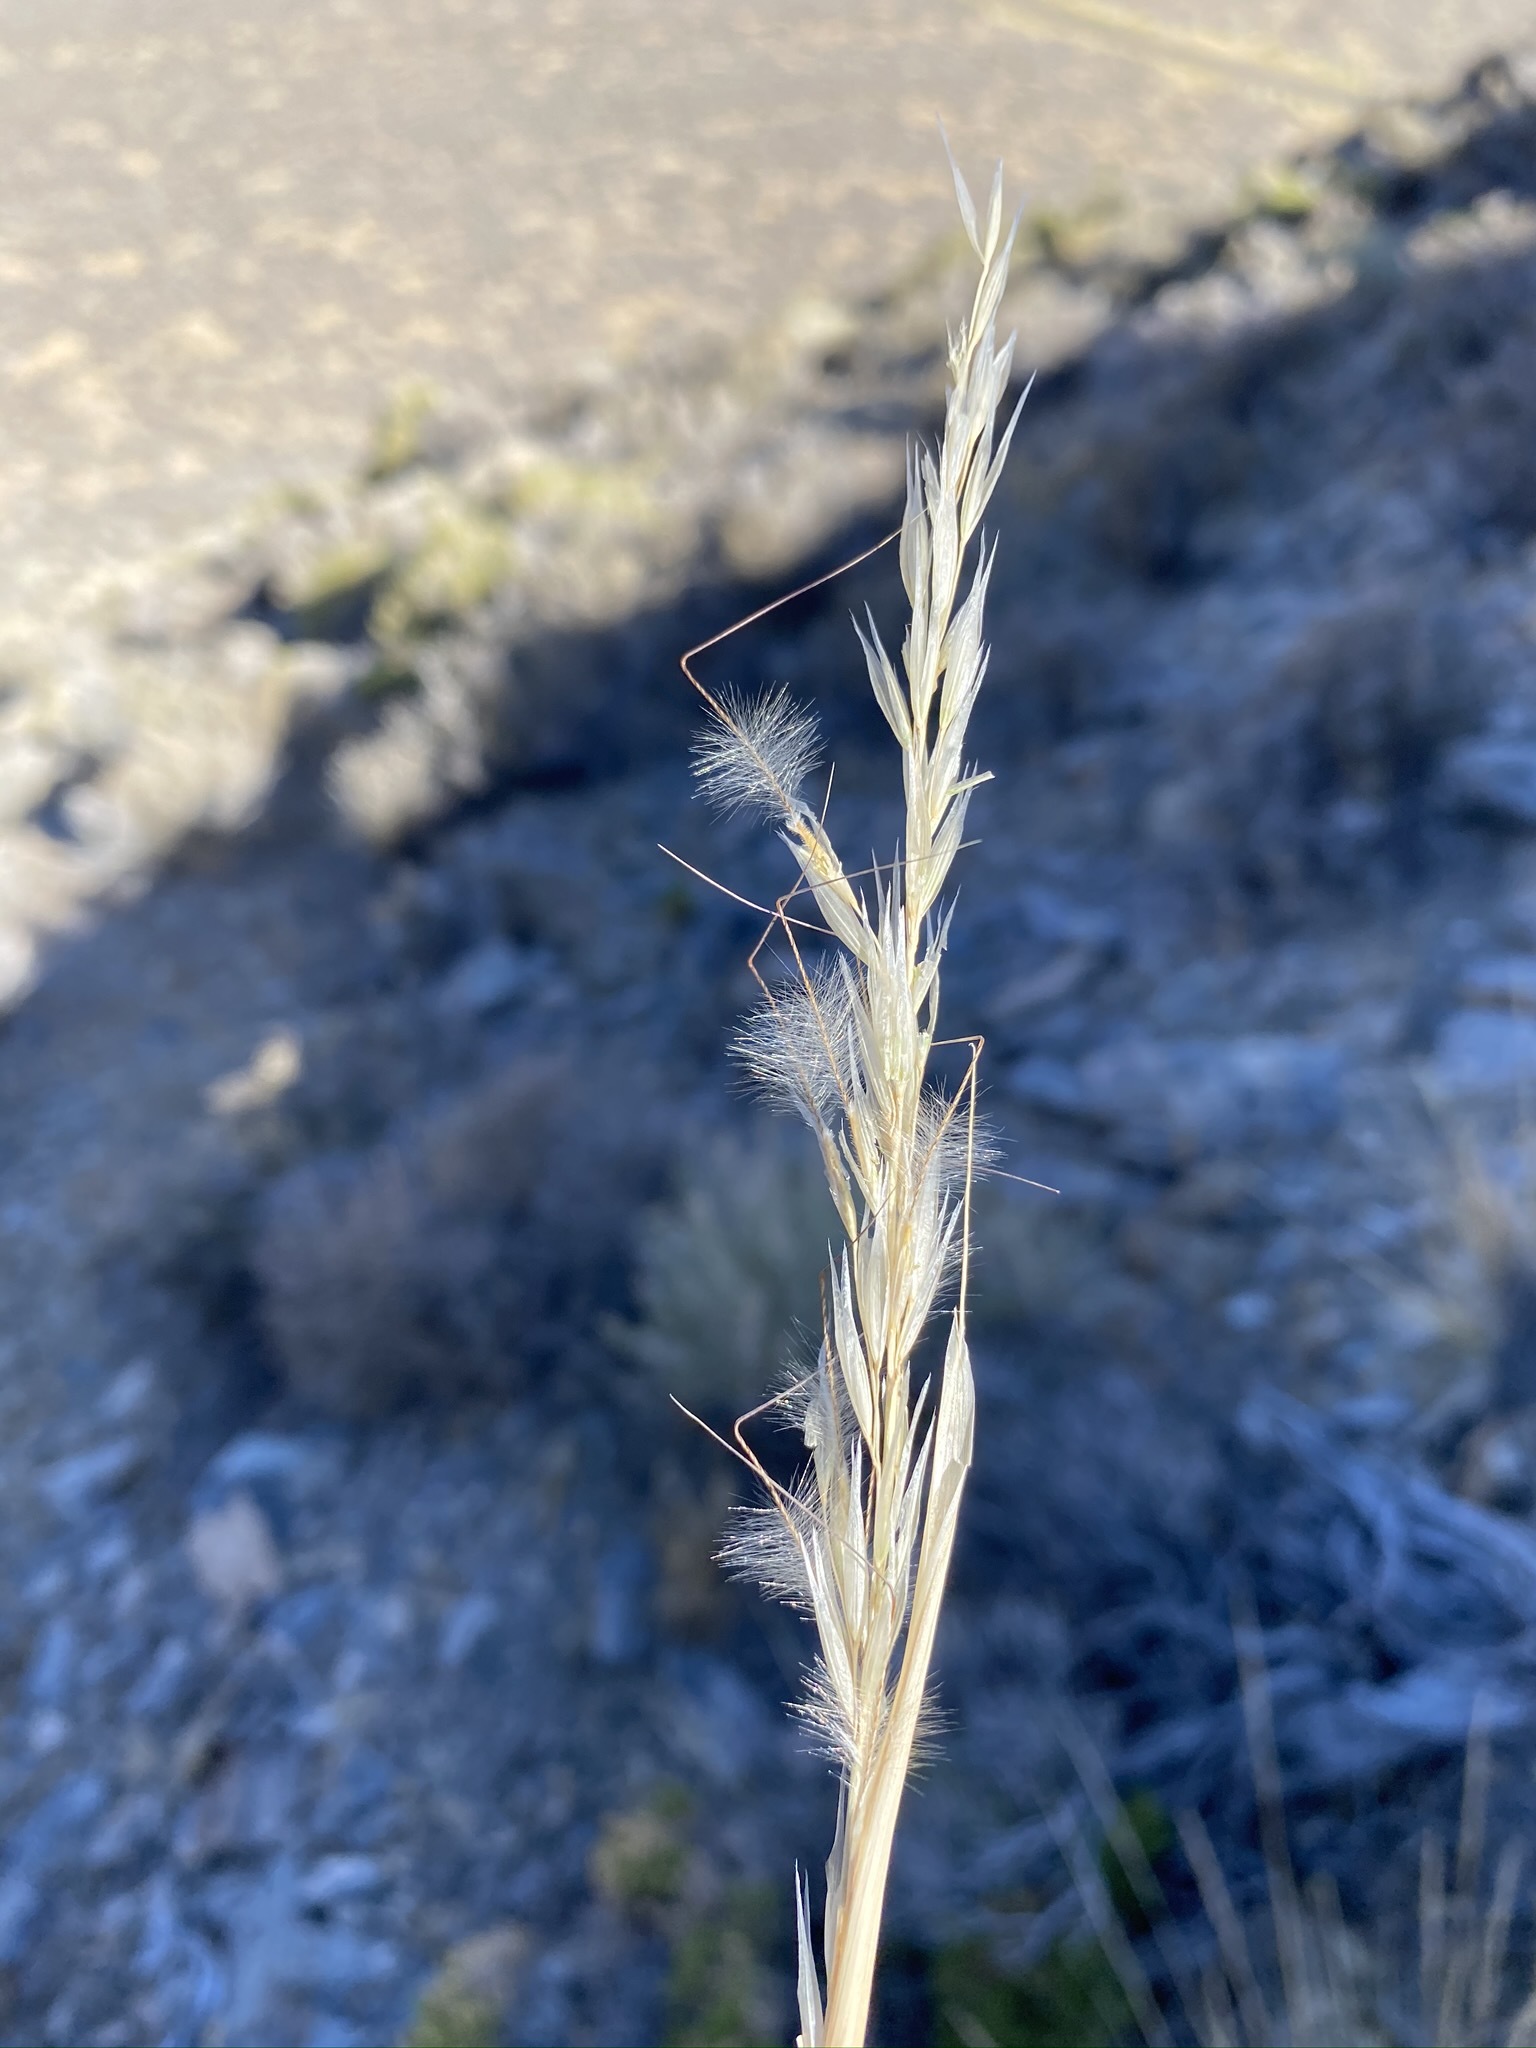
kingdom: Plantae
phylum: Tracheophyta
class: Liliopsida
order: Poales
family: Poaceae
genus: Pappostipa
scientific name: Pappostipa speciosa
